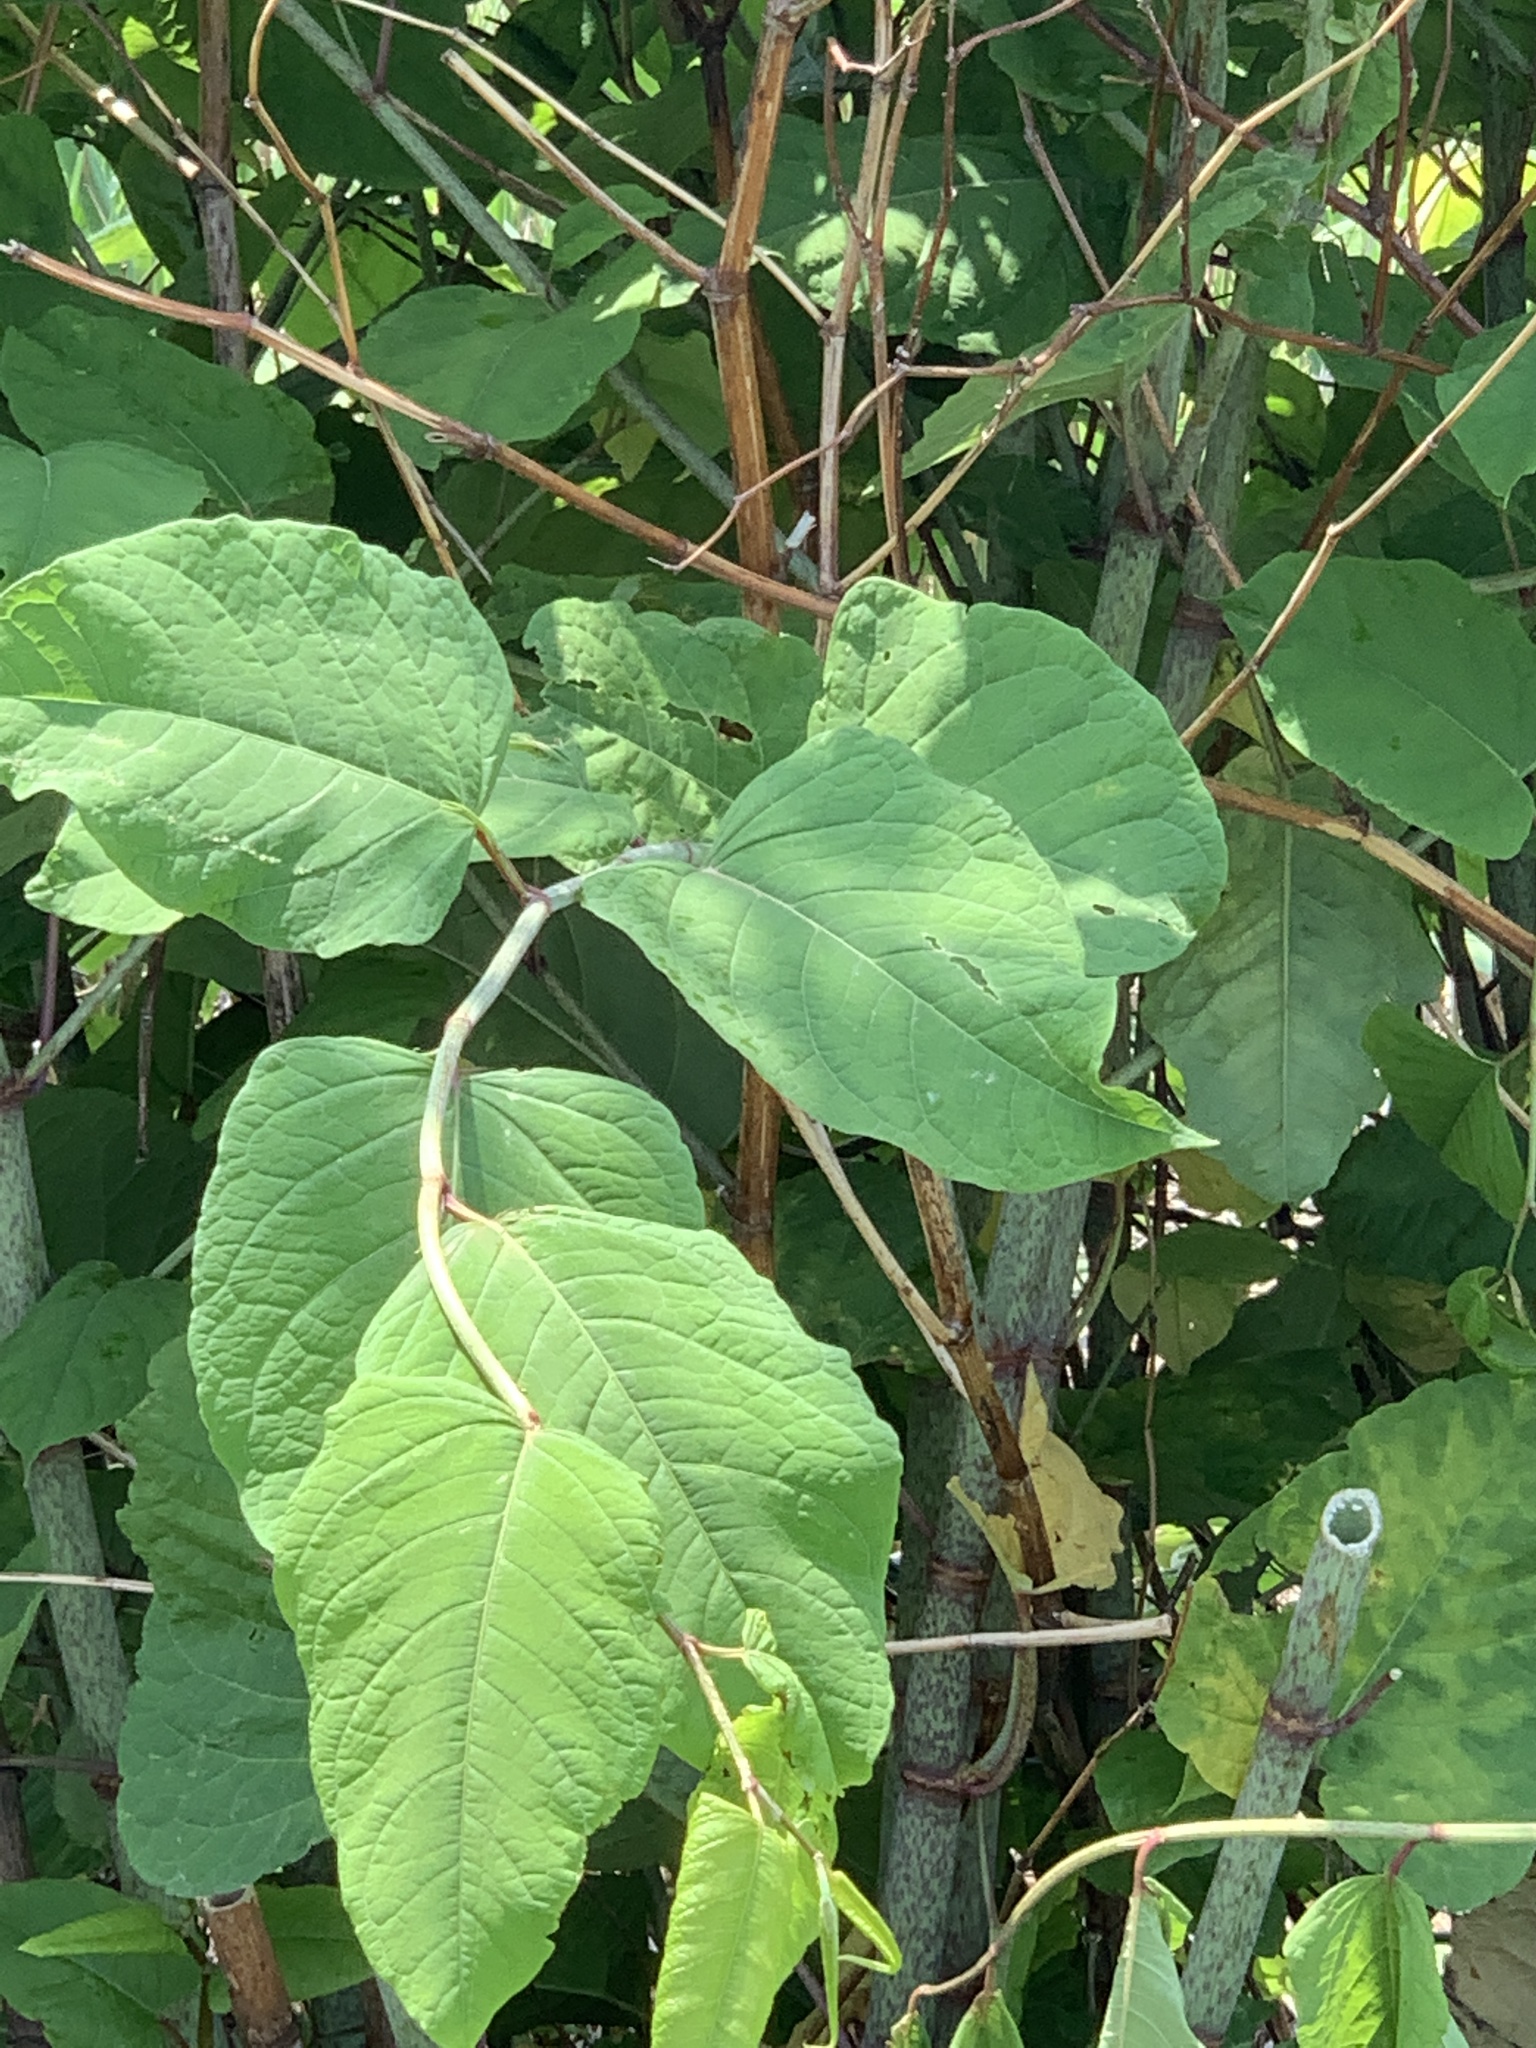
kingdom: Plantae
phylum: Tracheophyta
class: Magnoliopsida
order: Caryophyllales
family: Polygonaceae
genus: Reynoutria
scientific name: Reynoutria japonica
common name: Japanese knotweed
